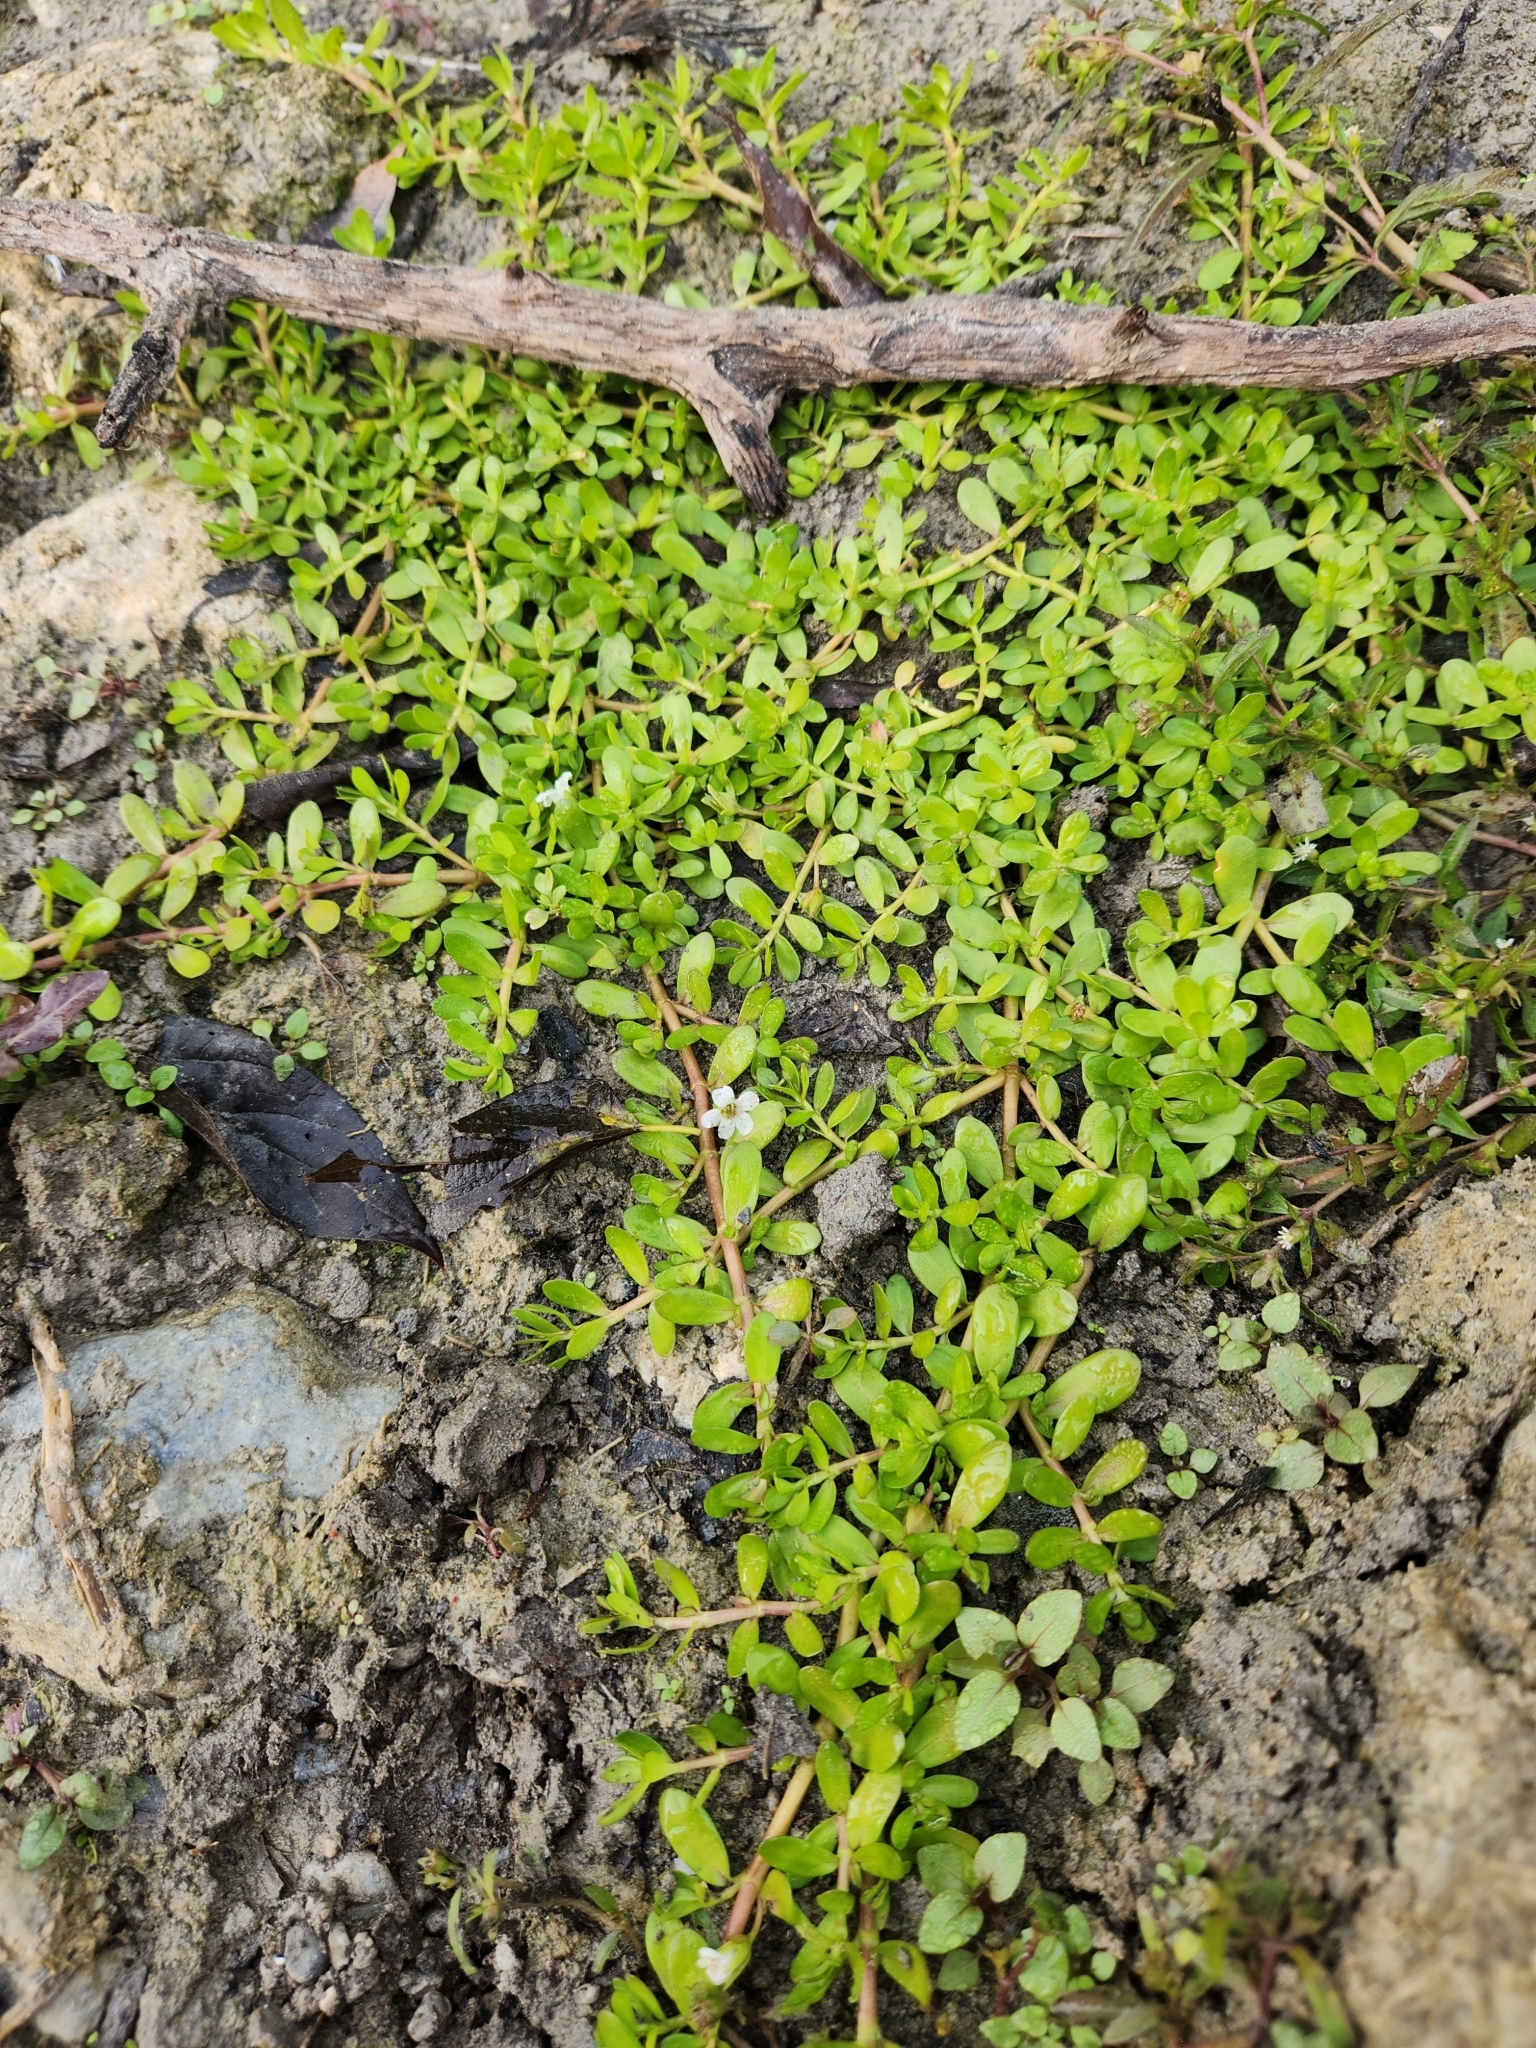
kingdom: Plantae
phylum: Tracheophyta
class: Magnoliopsida
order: Lamiales
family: Plantaginaceae
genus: Bacopa
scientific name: Bacopa monnieri
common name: Indian-pennywort
